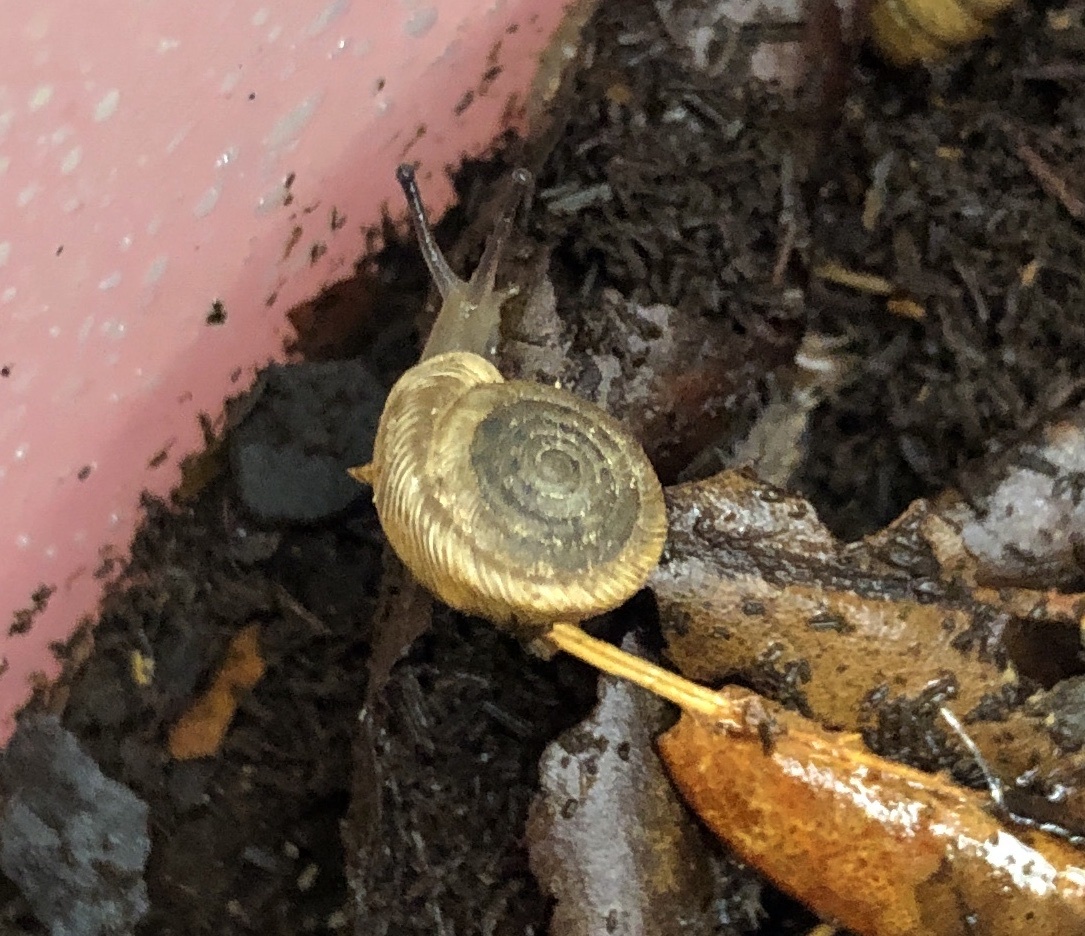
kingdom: Animalia
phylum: Mollusca
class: Gastropoda
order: Stylommatophora
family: Polygyridae
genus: Polygyra
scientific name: Polygyra cereolus
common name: Southern flatcone snail
